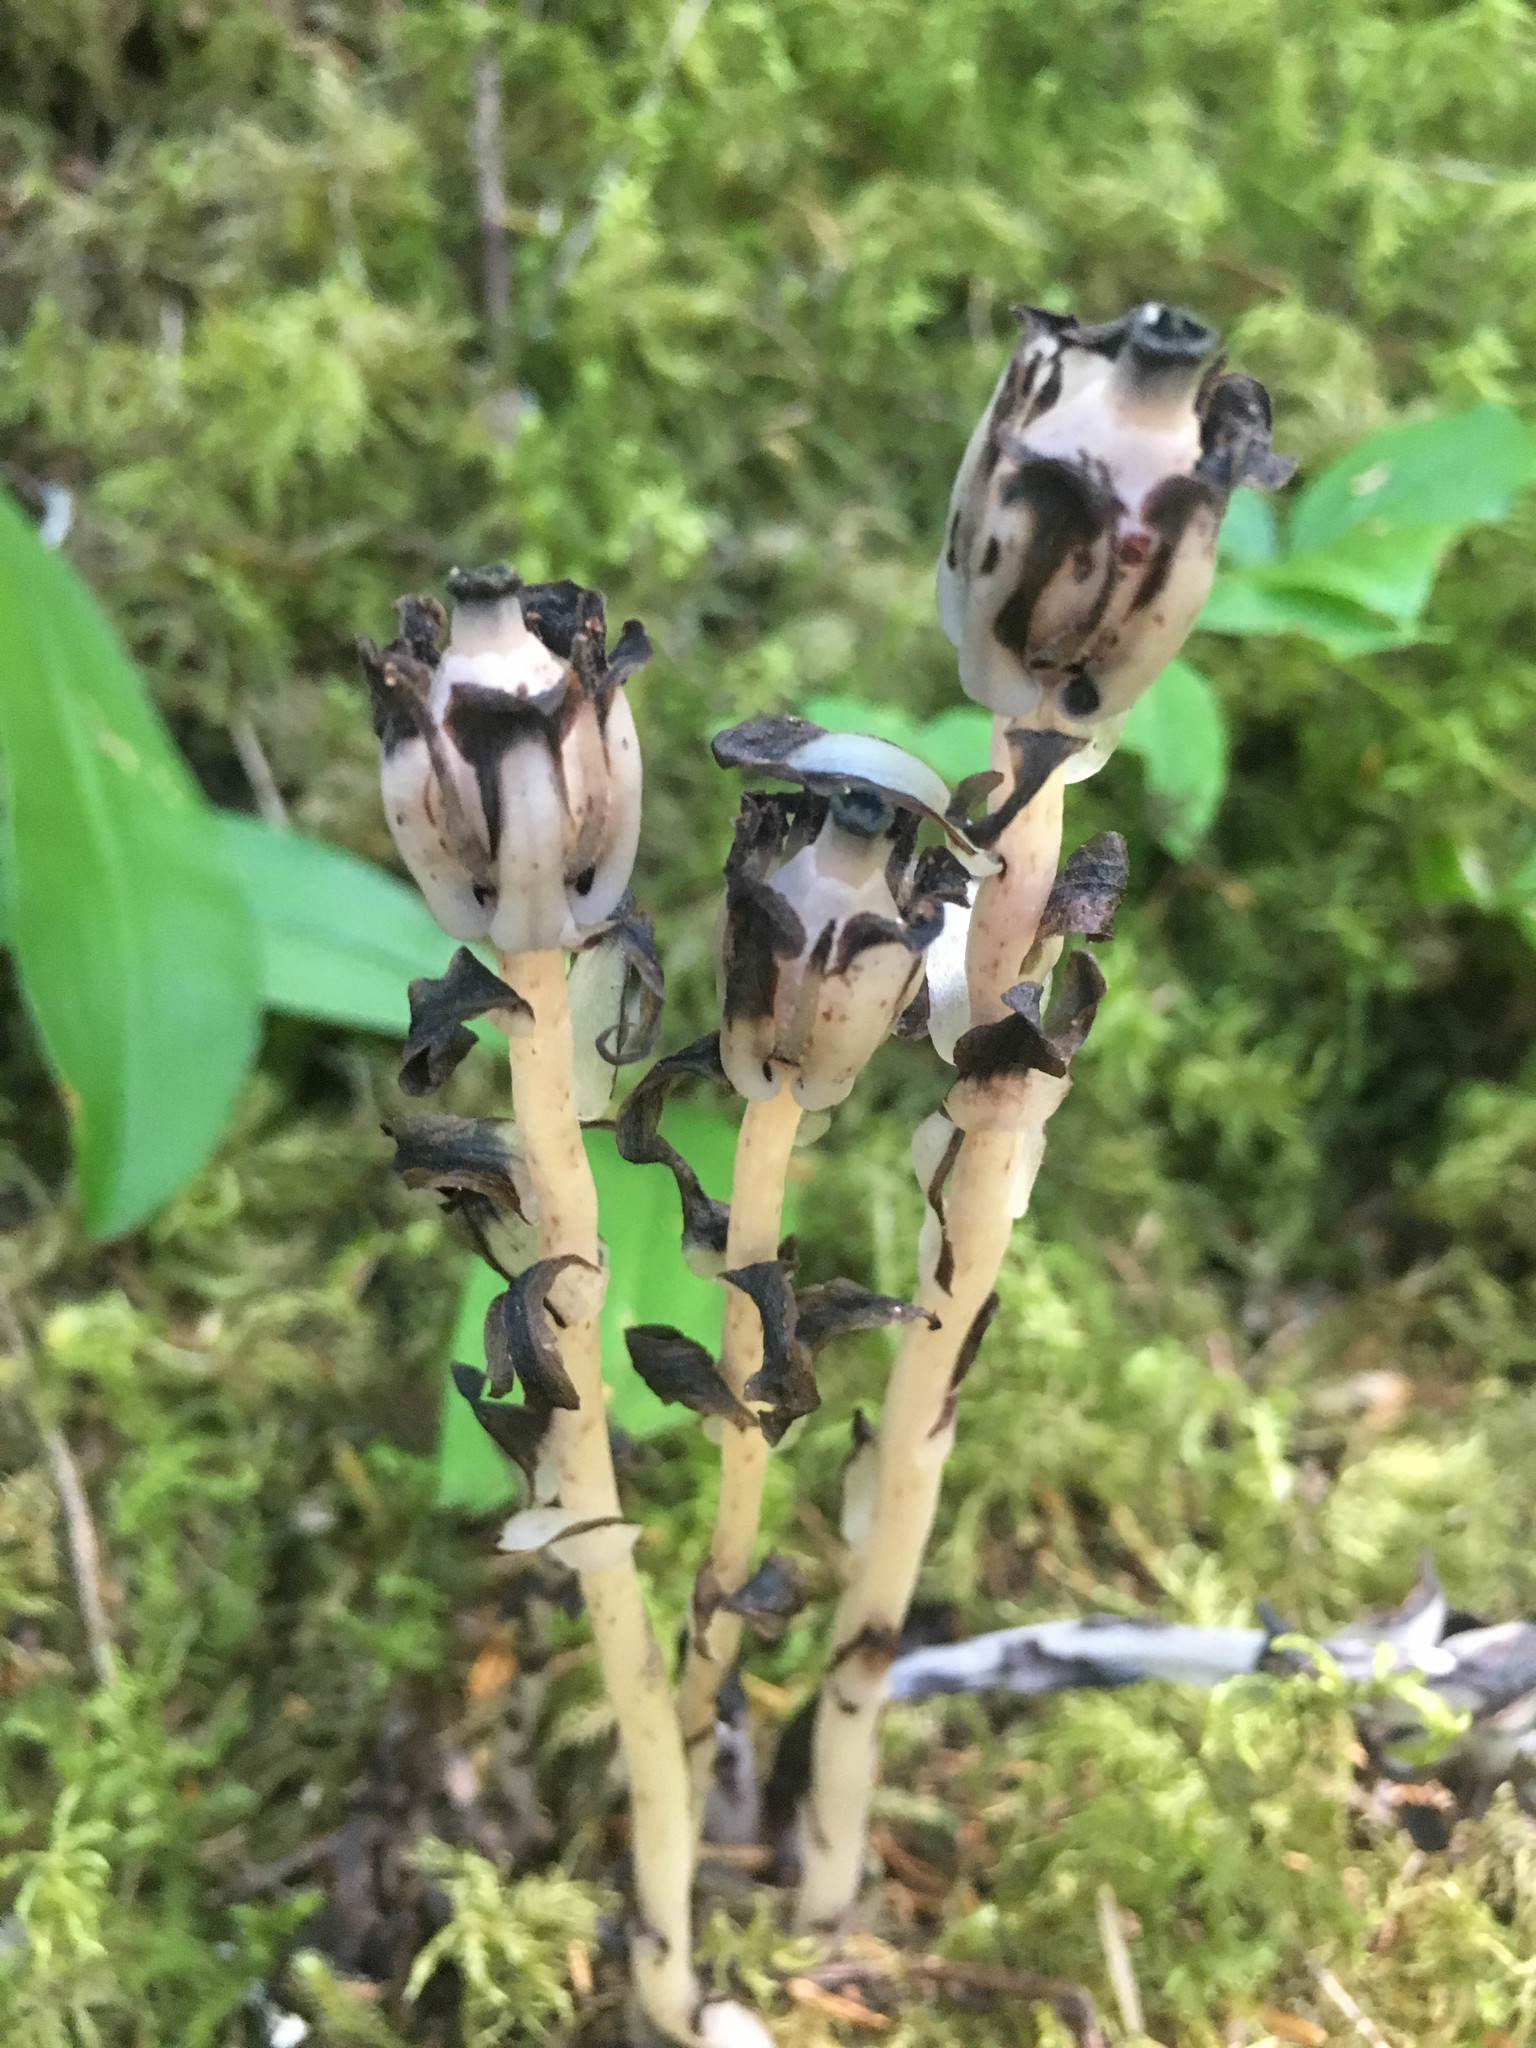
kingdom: Plantae
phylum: Tracheophyta
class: Magnoliopsida
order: Ericales
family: Ericaceae
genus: Monotropa
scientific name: Monotropa uniflora
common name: Convulsion root
